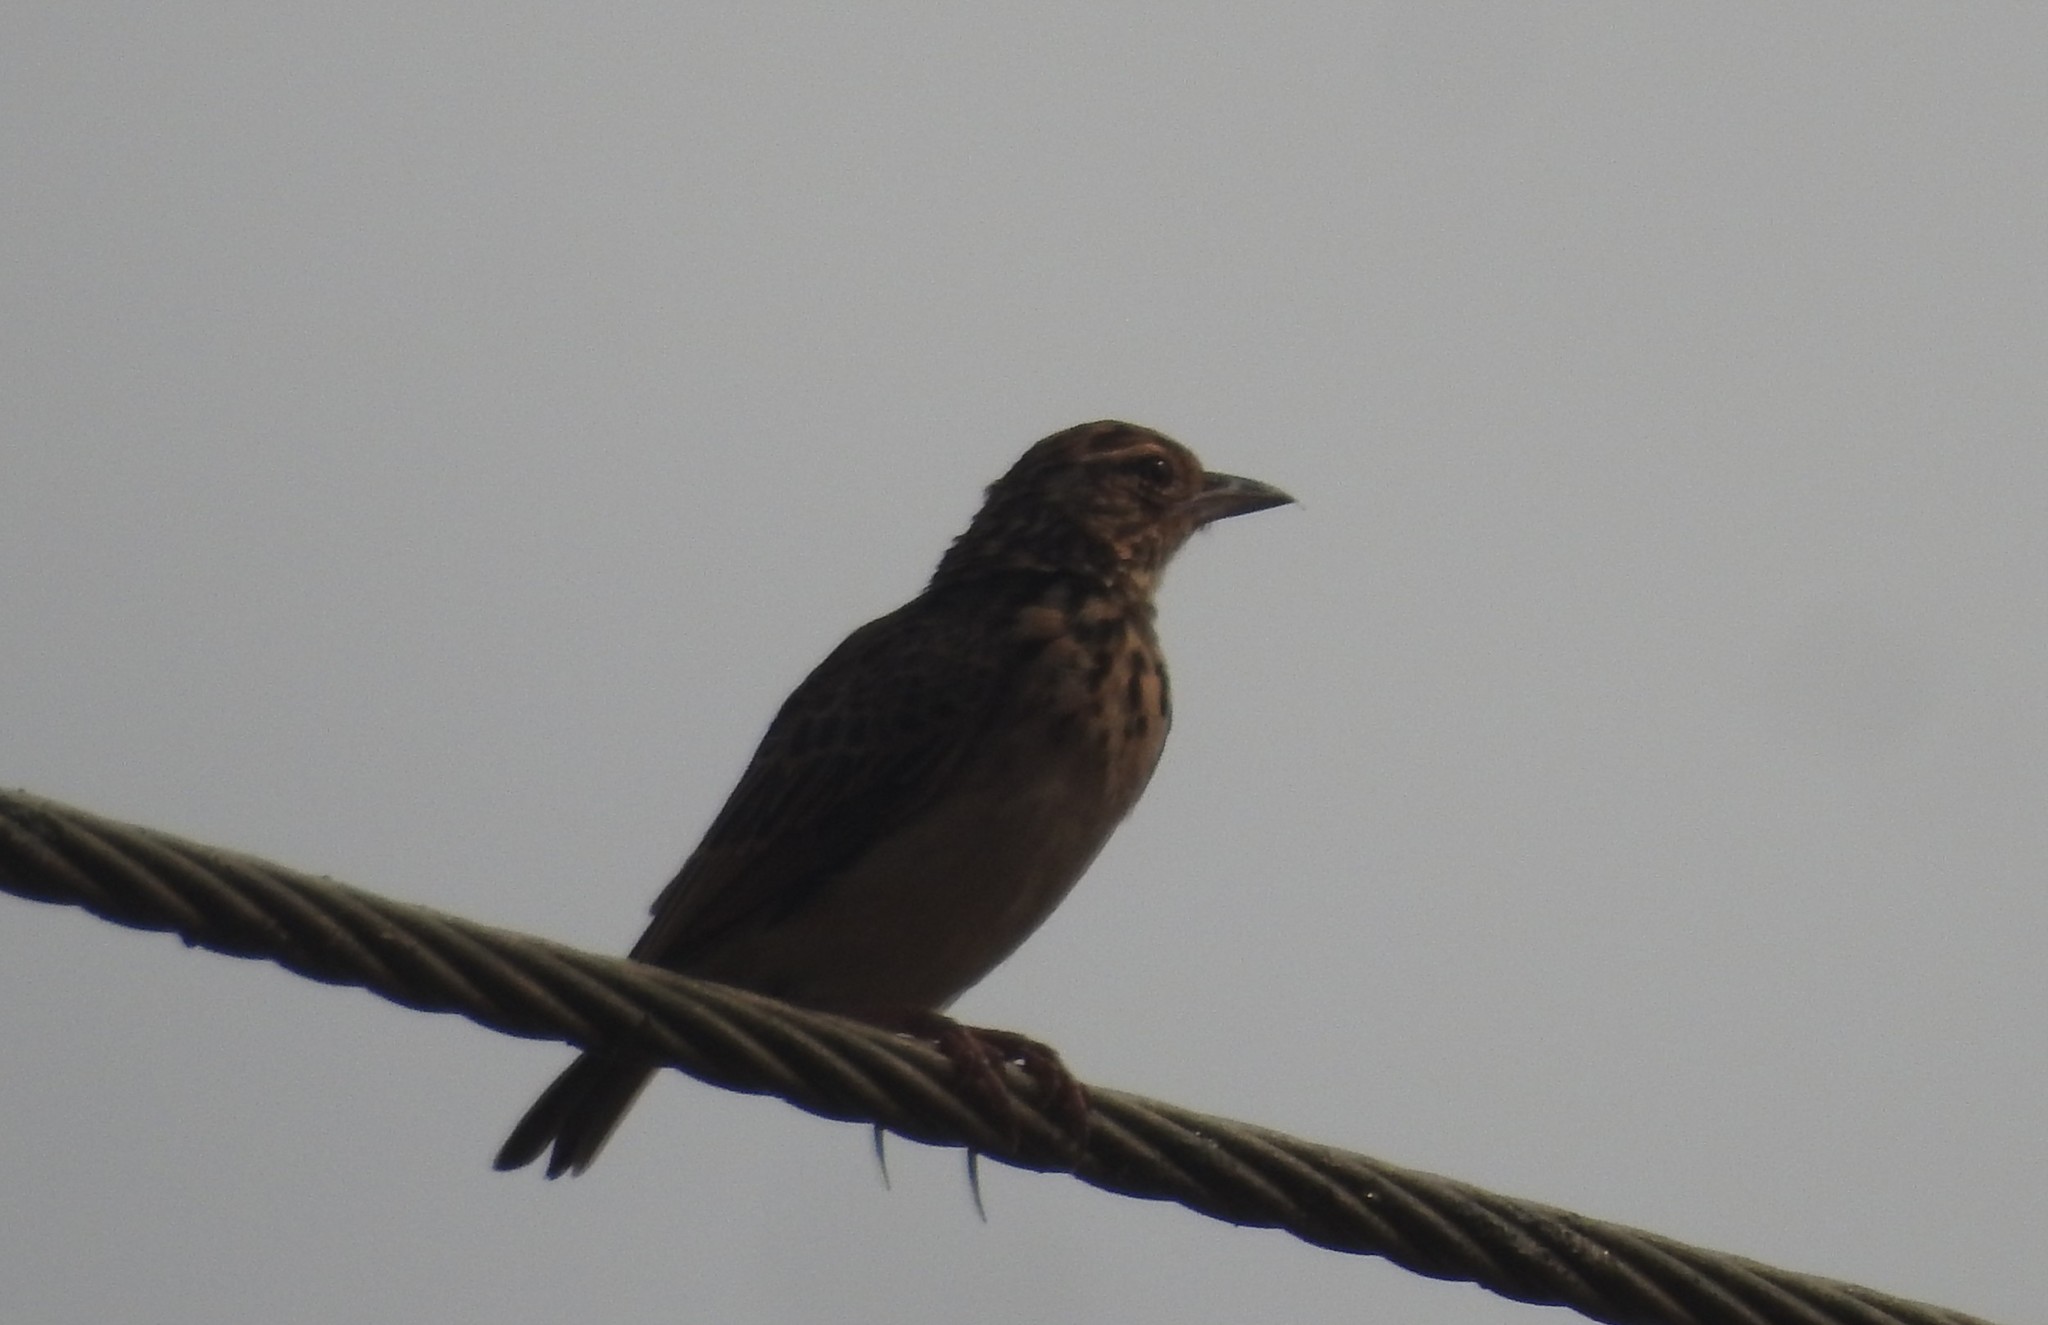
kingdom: Animalia
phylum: Chordata
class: Aves
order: Passeriformes
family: Alaudidae
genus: Mirafra
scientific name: Mirafra affinis
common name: Jerdon's bushlark
